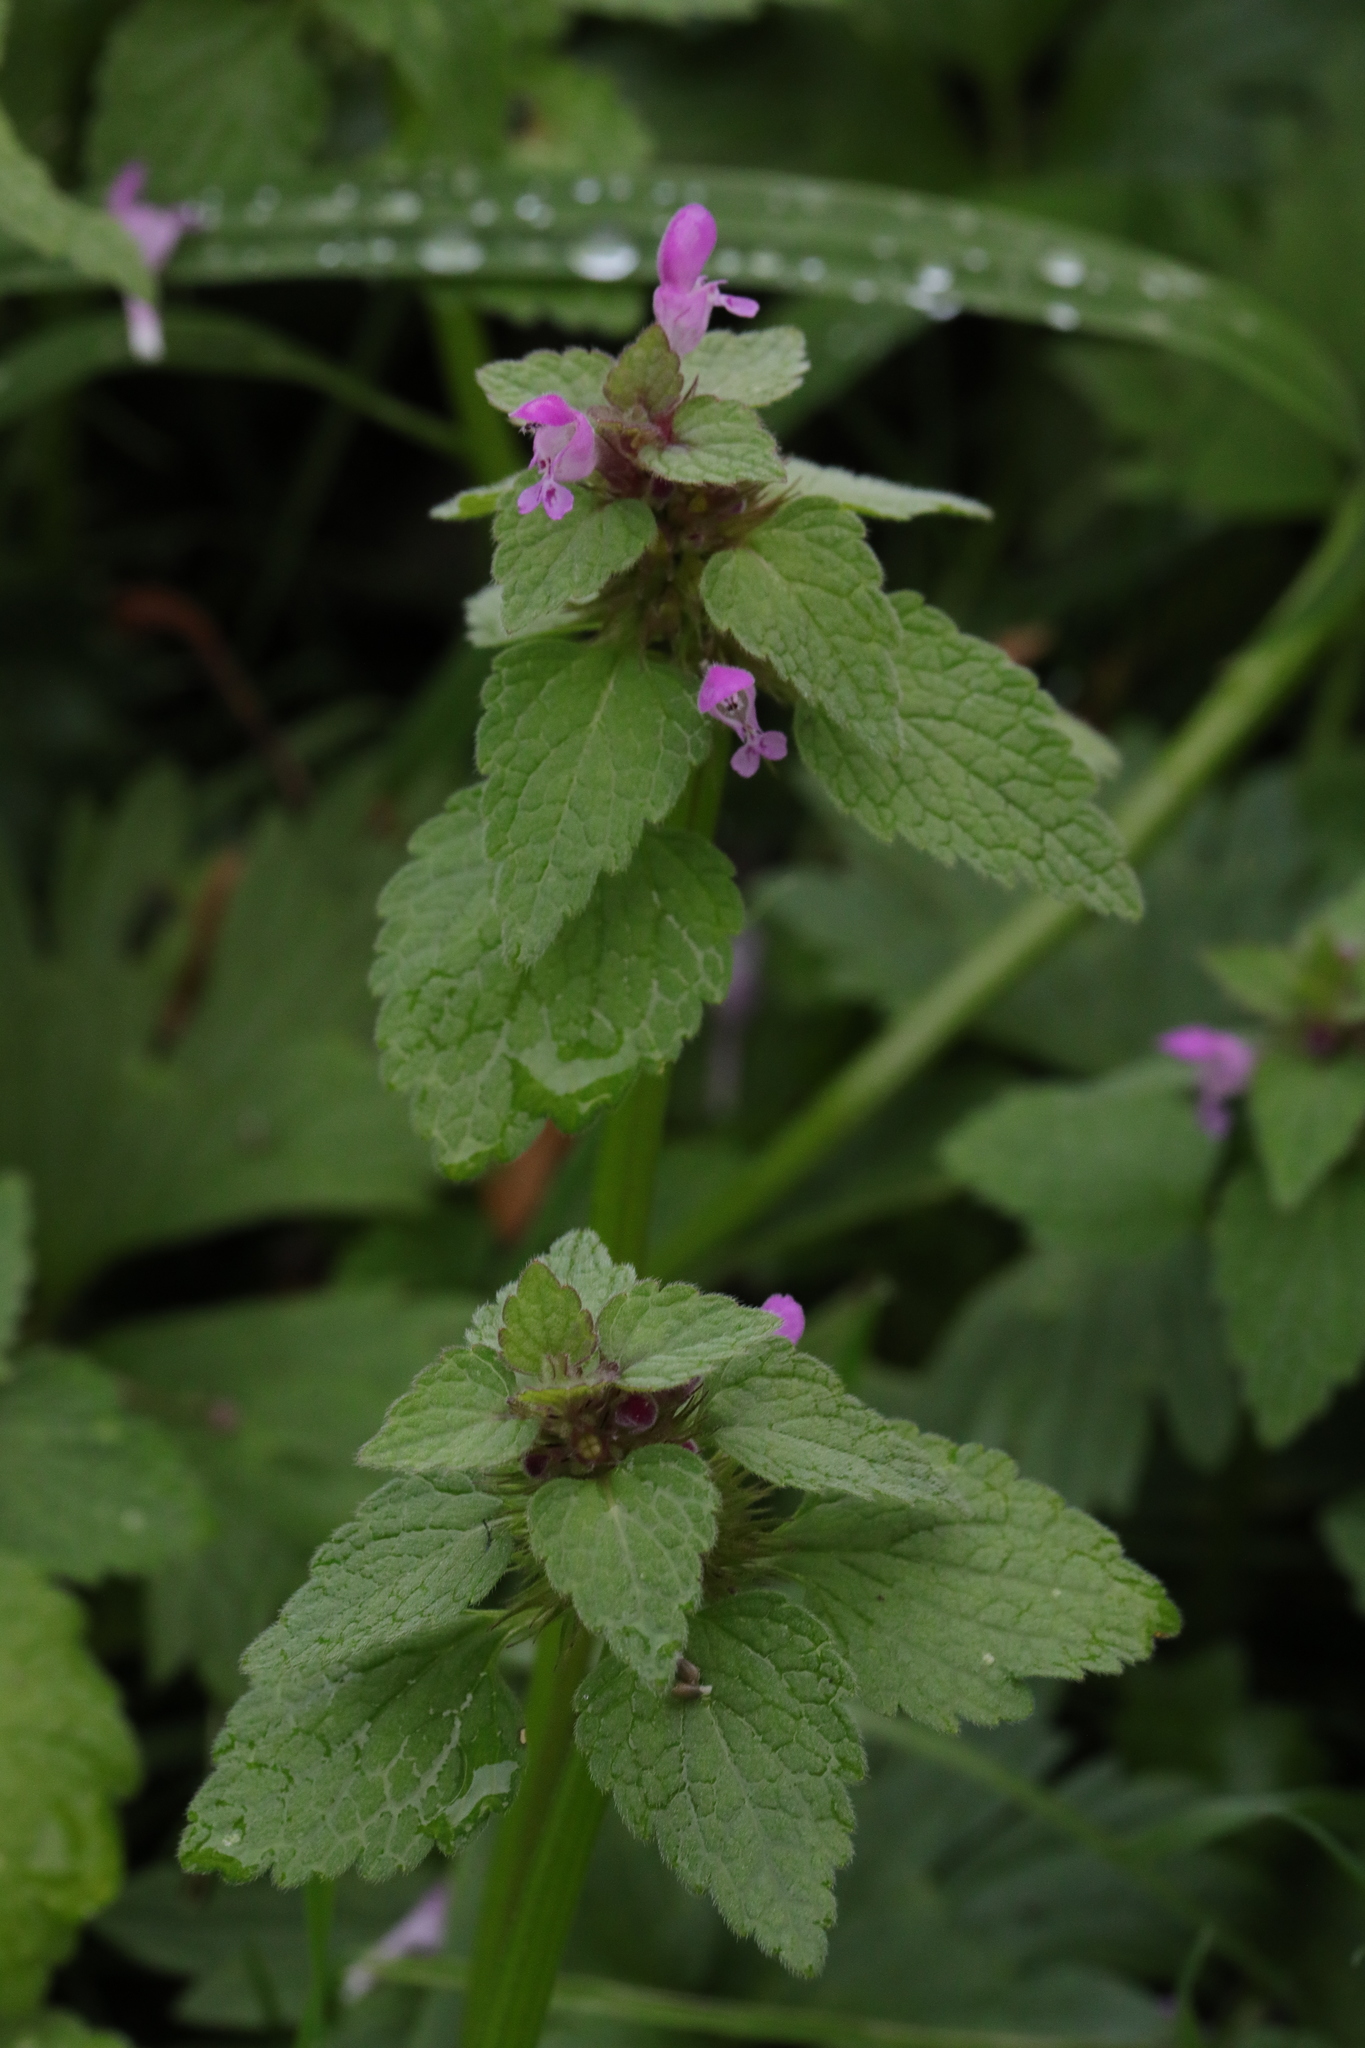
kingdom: Plantae
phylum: Tracheophyta
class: Magnoliopsida
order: Lamiales
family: Lamiaceae
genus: Lamium
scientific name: Lamium purpureum
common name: Red dead-nettle
